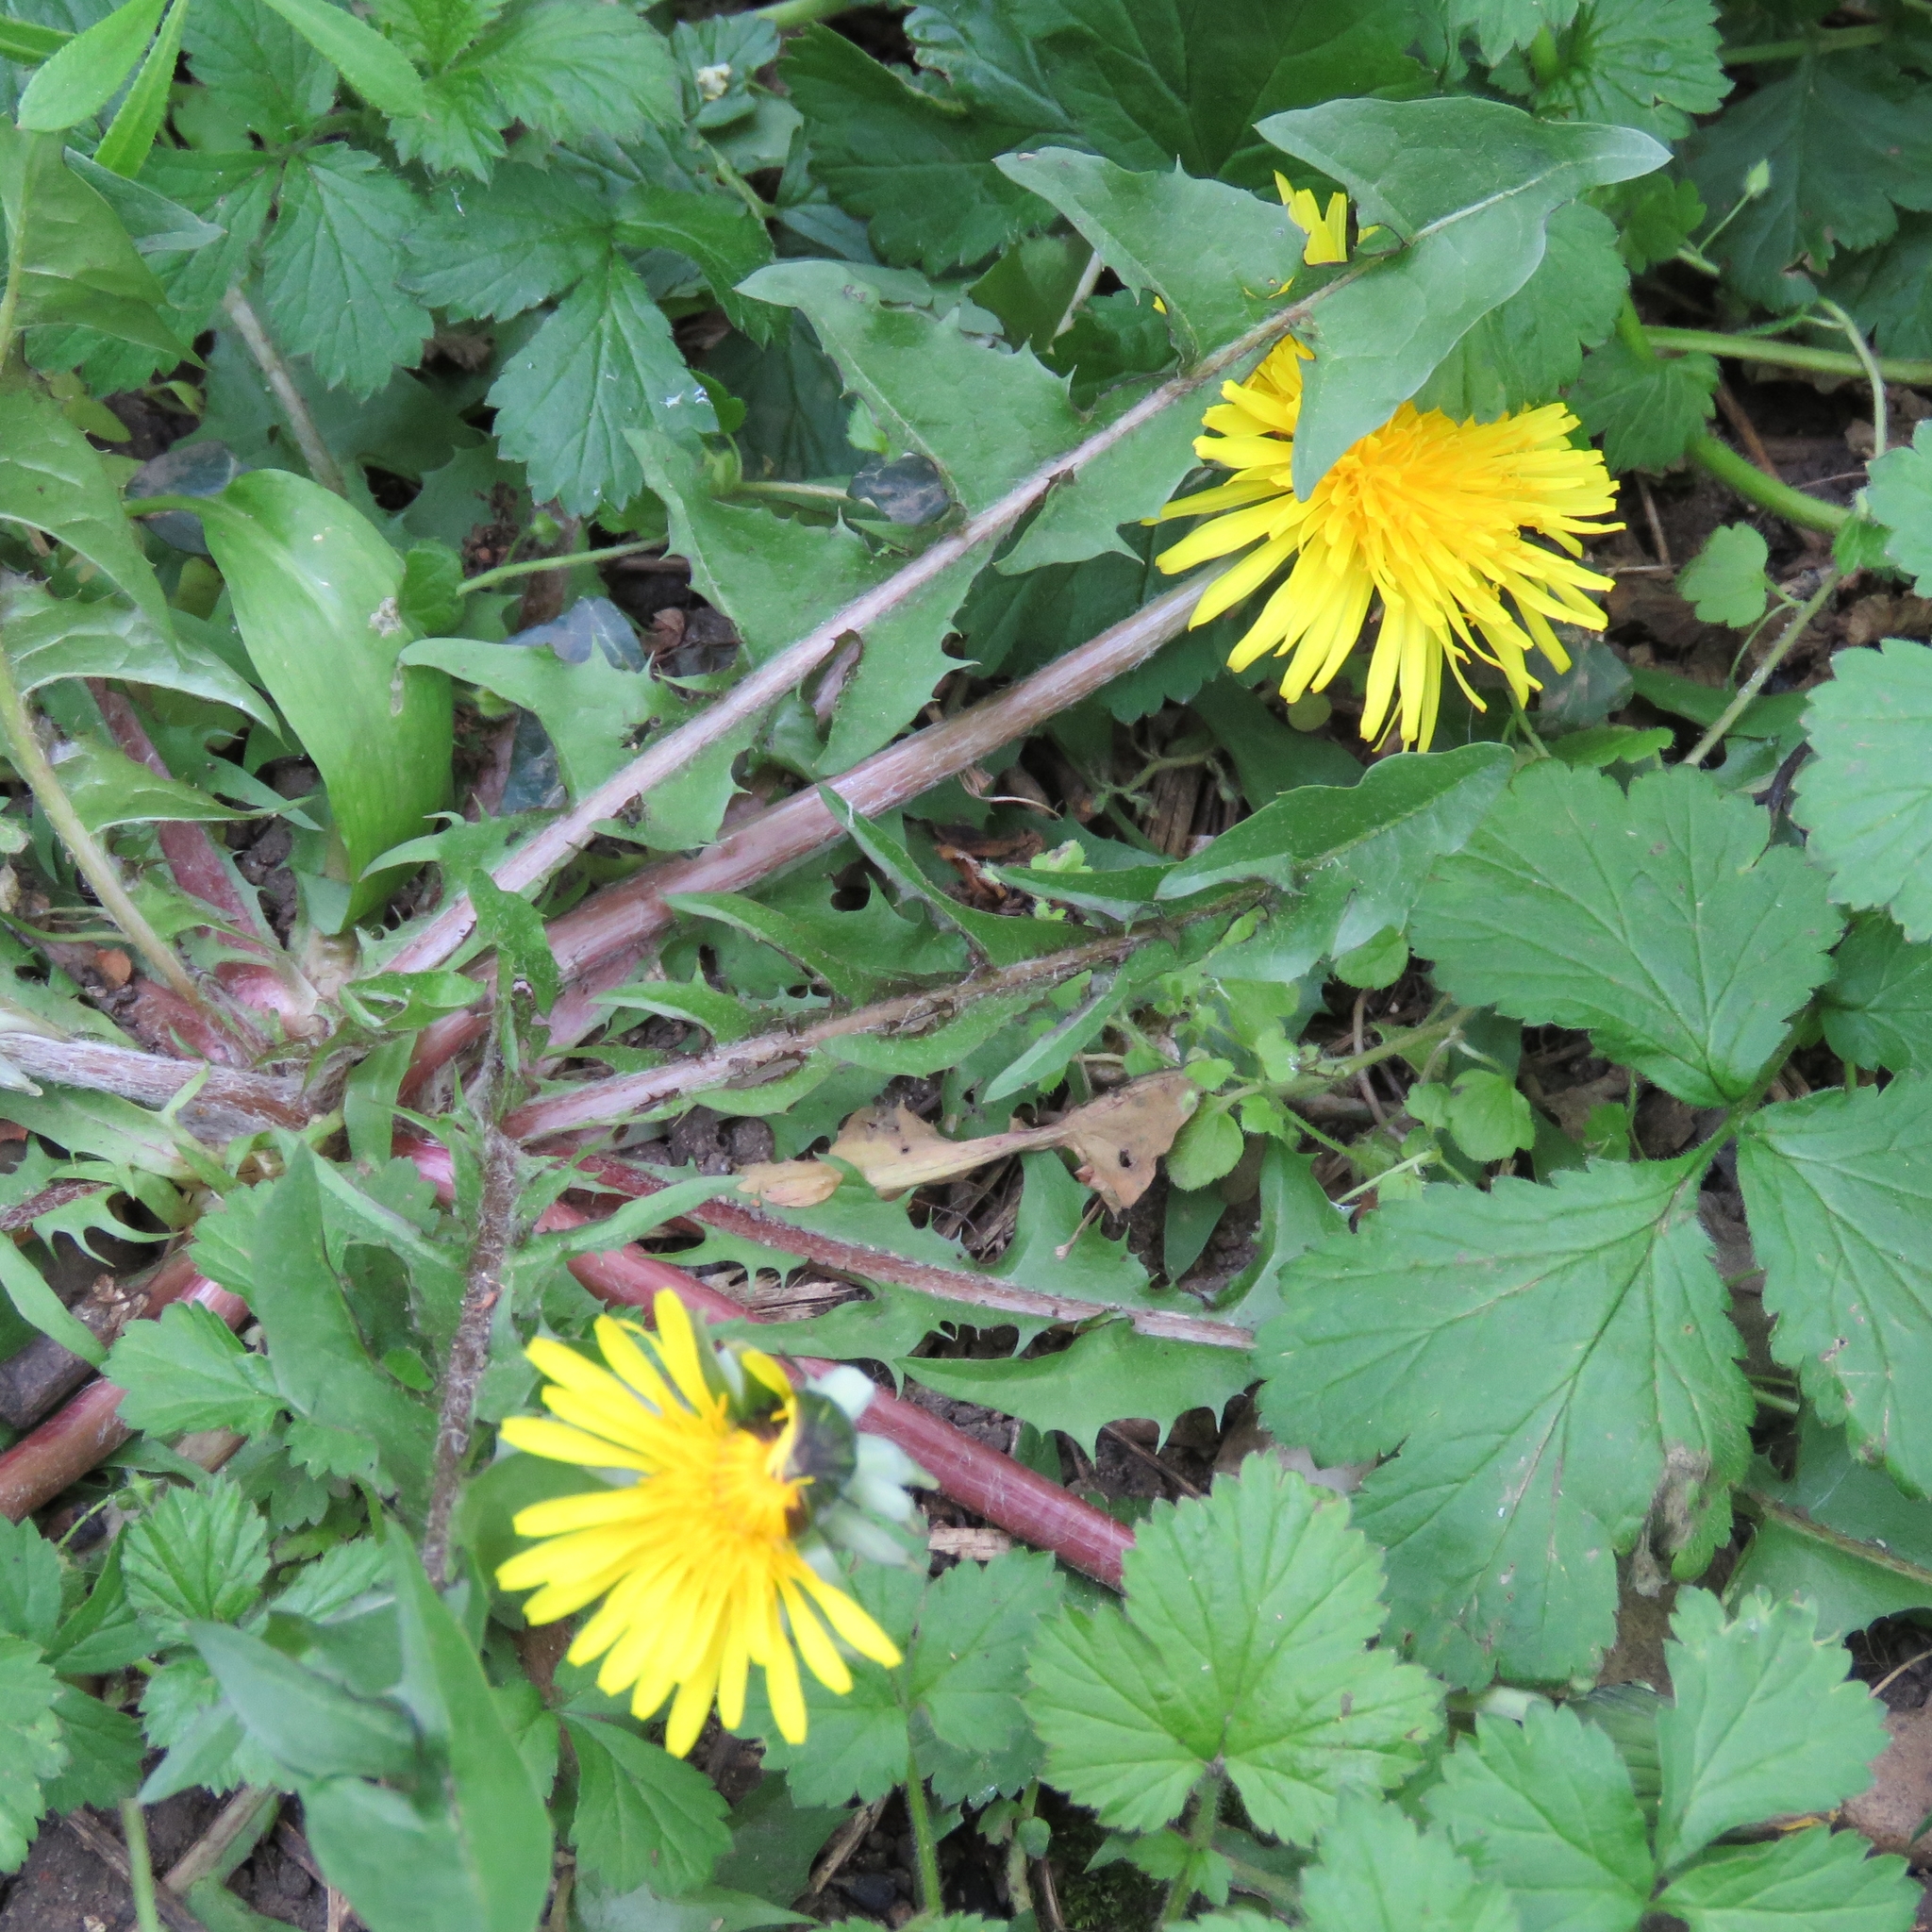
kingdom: Plantae
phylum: Tracheophyta
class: Magnoliopsida
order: Asterales
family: Asteraceae
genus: Taraxacum
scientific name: Taraxacum officinale
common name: Common dandelion
